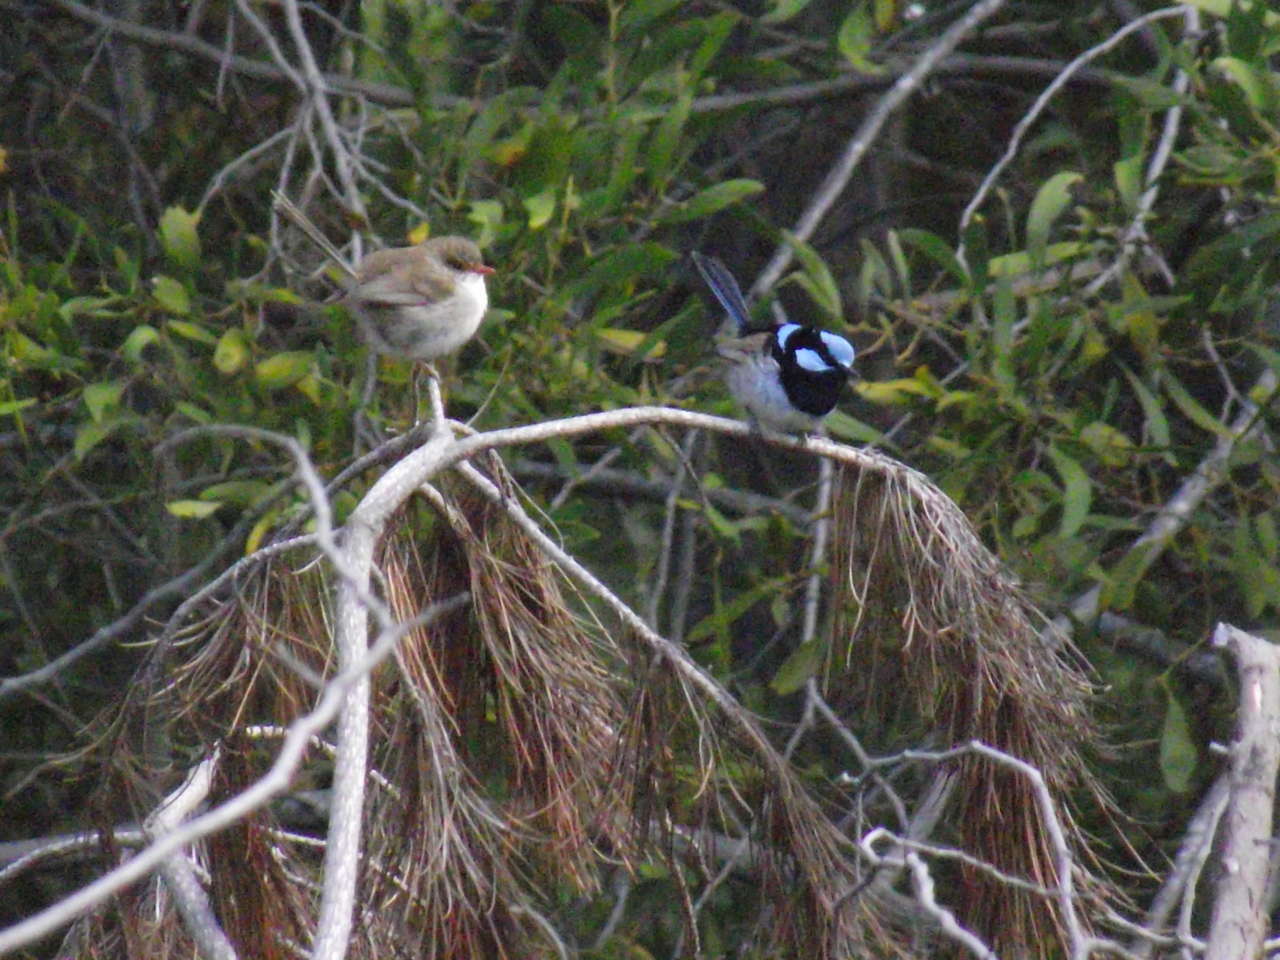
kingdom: Animalia
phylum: Chordata
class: Aves
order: Passeriformes
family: Maluridae
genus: Malurus
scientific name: Malurus cyaneus
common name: Superb fairywren
